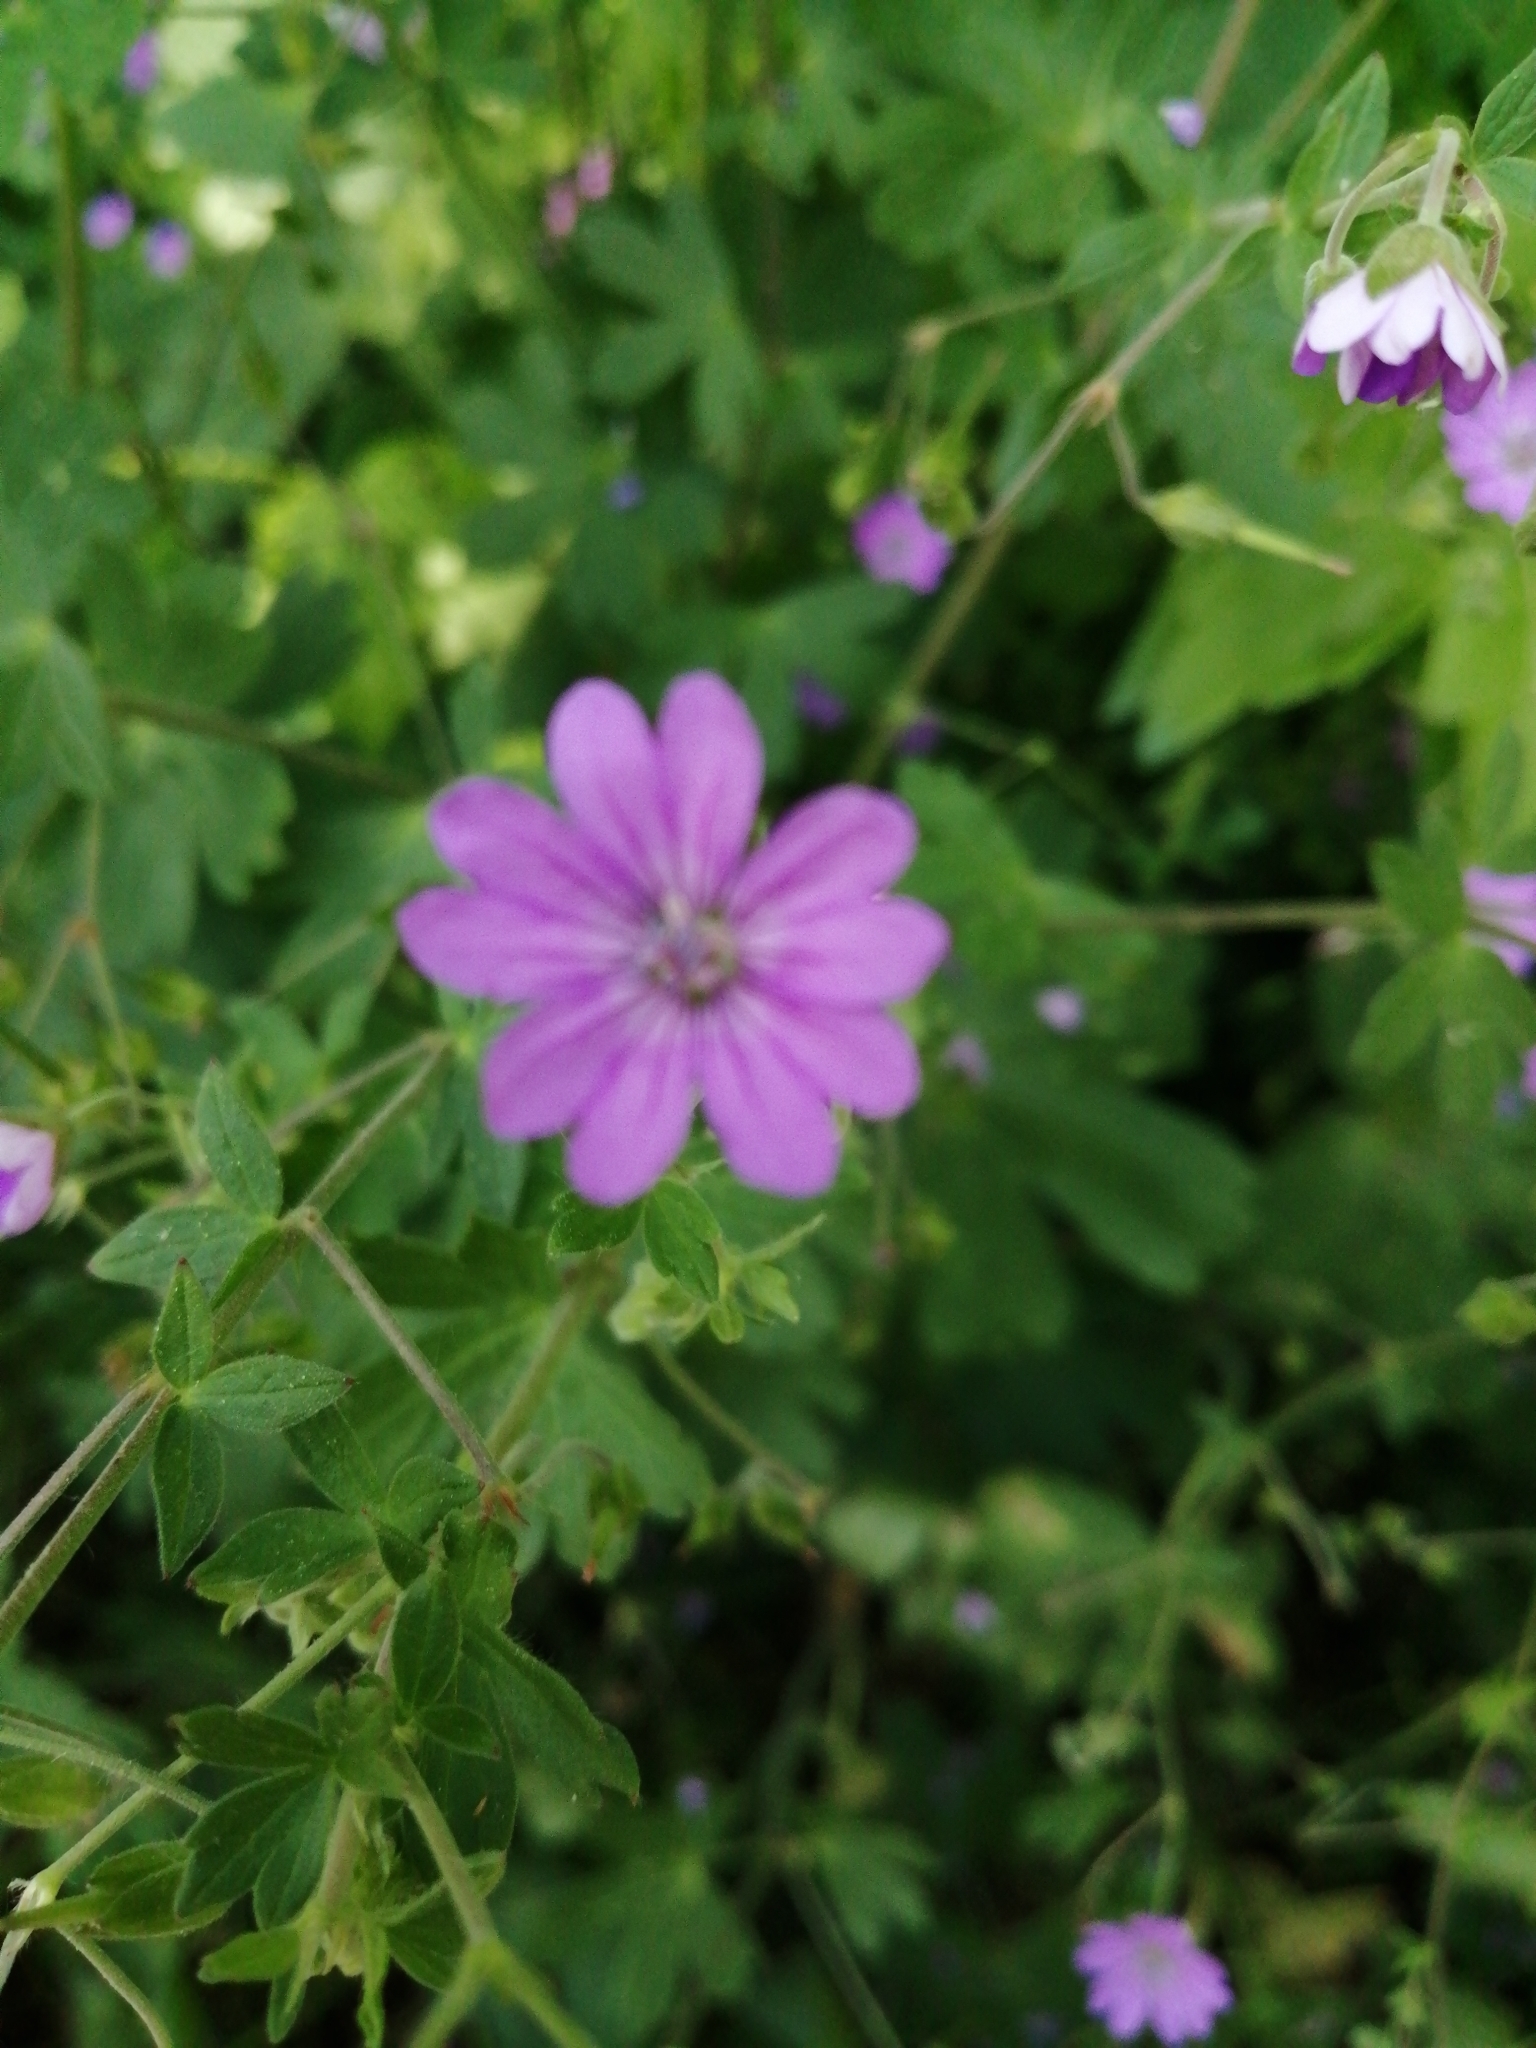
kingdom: Plantae
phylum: Tracheophyta
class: Magnoliopsida
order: Geraniales
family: Geraniaceae
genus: Geranium
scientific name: Geranium molle
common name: Dove's-foot crane's-bill
